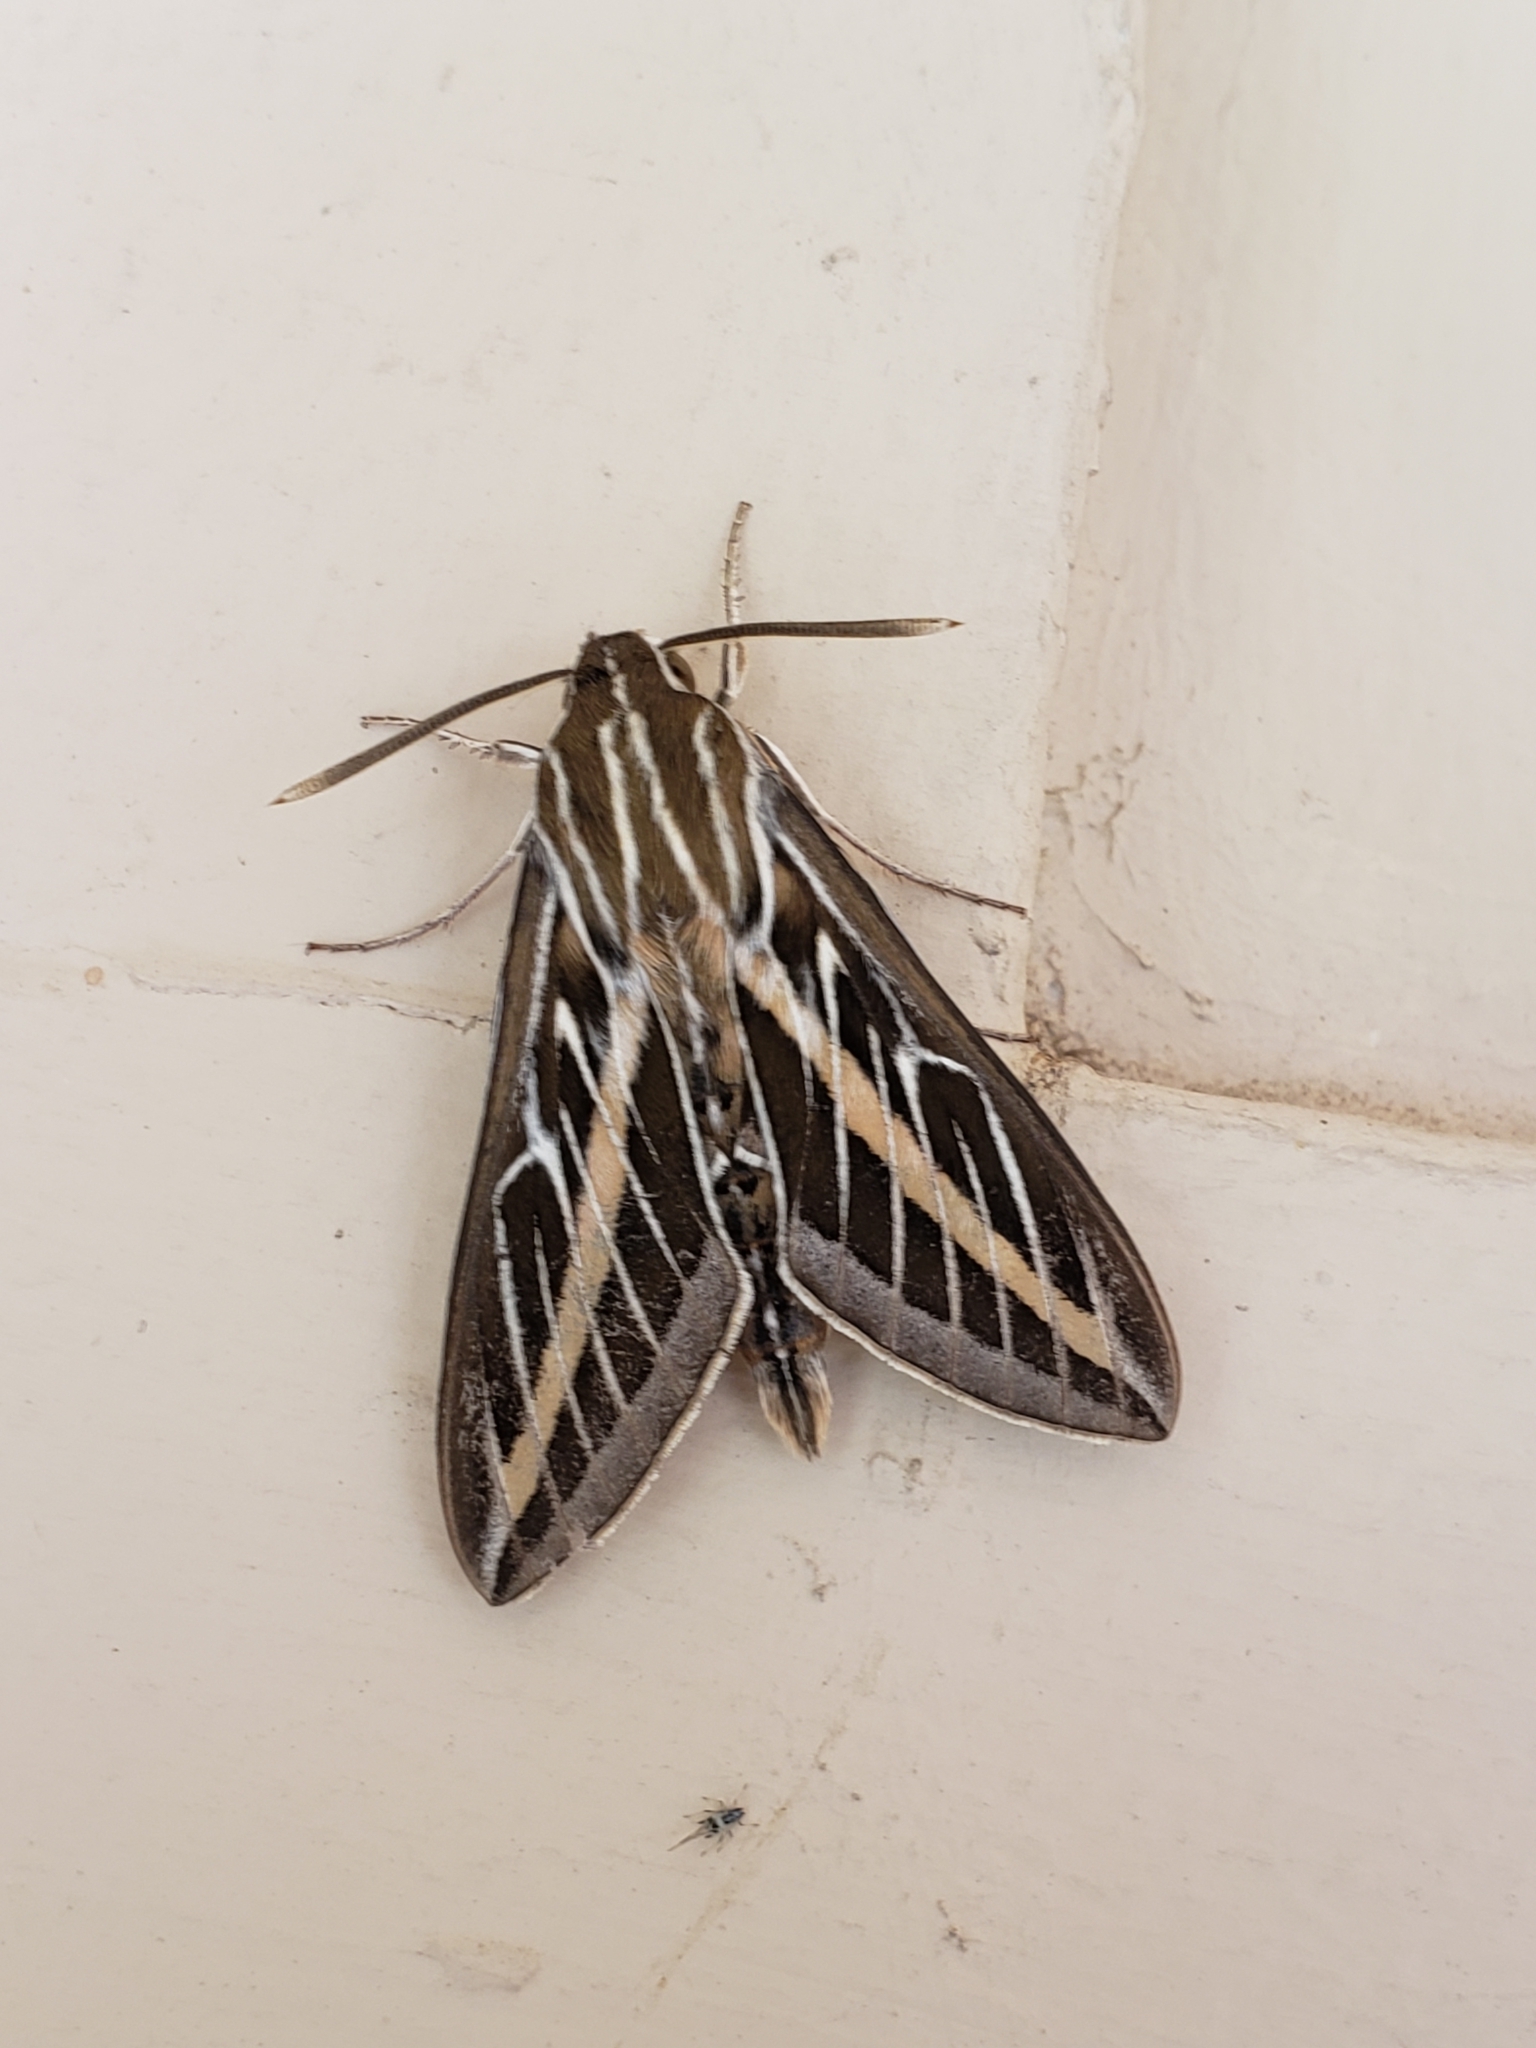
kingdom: Animalia
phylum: Arthropoda
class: Insecta
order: Lepidoptera
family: Sphingidae
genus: Hyles
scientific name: Hyles lineata
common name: White-lined sphinx
